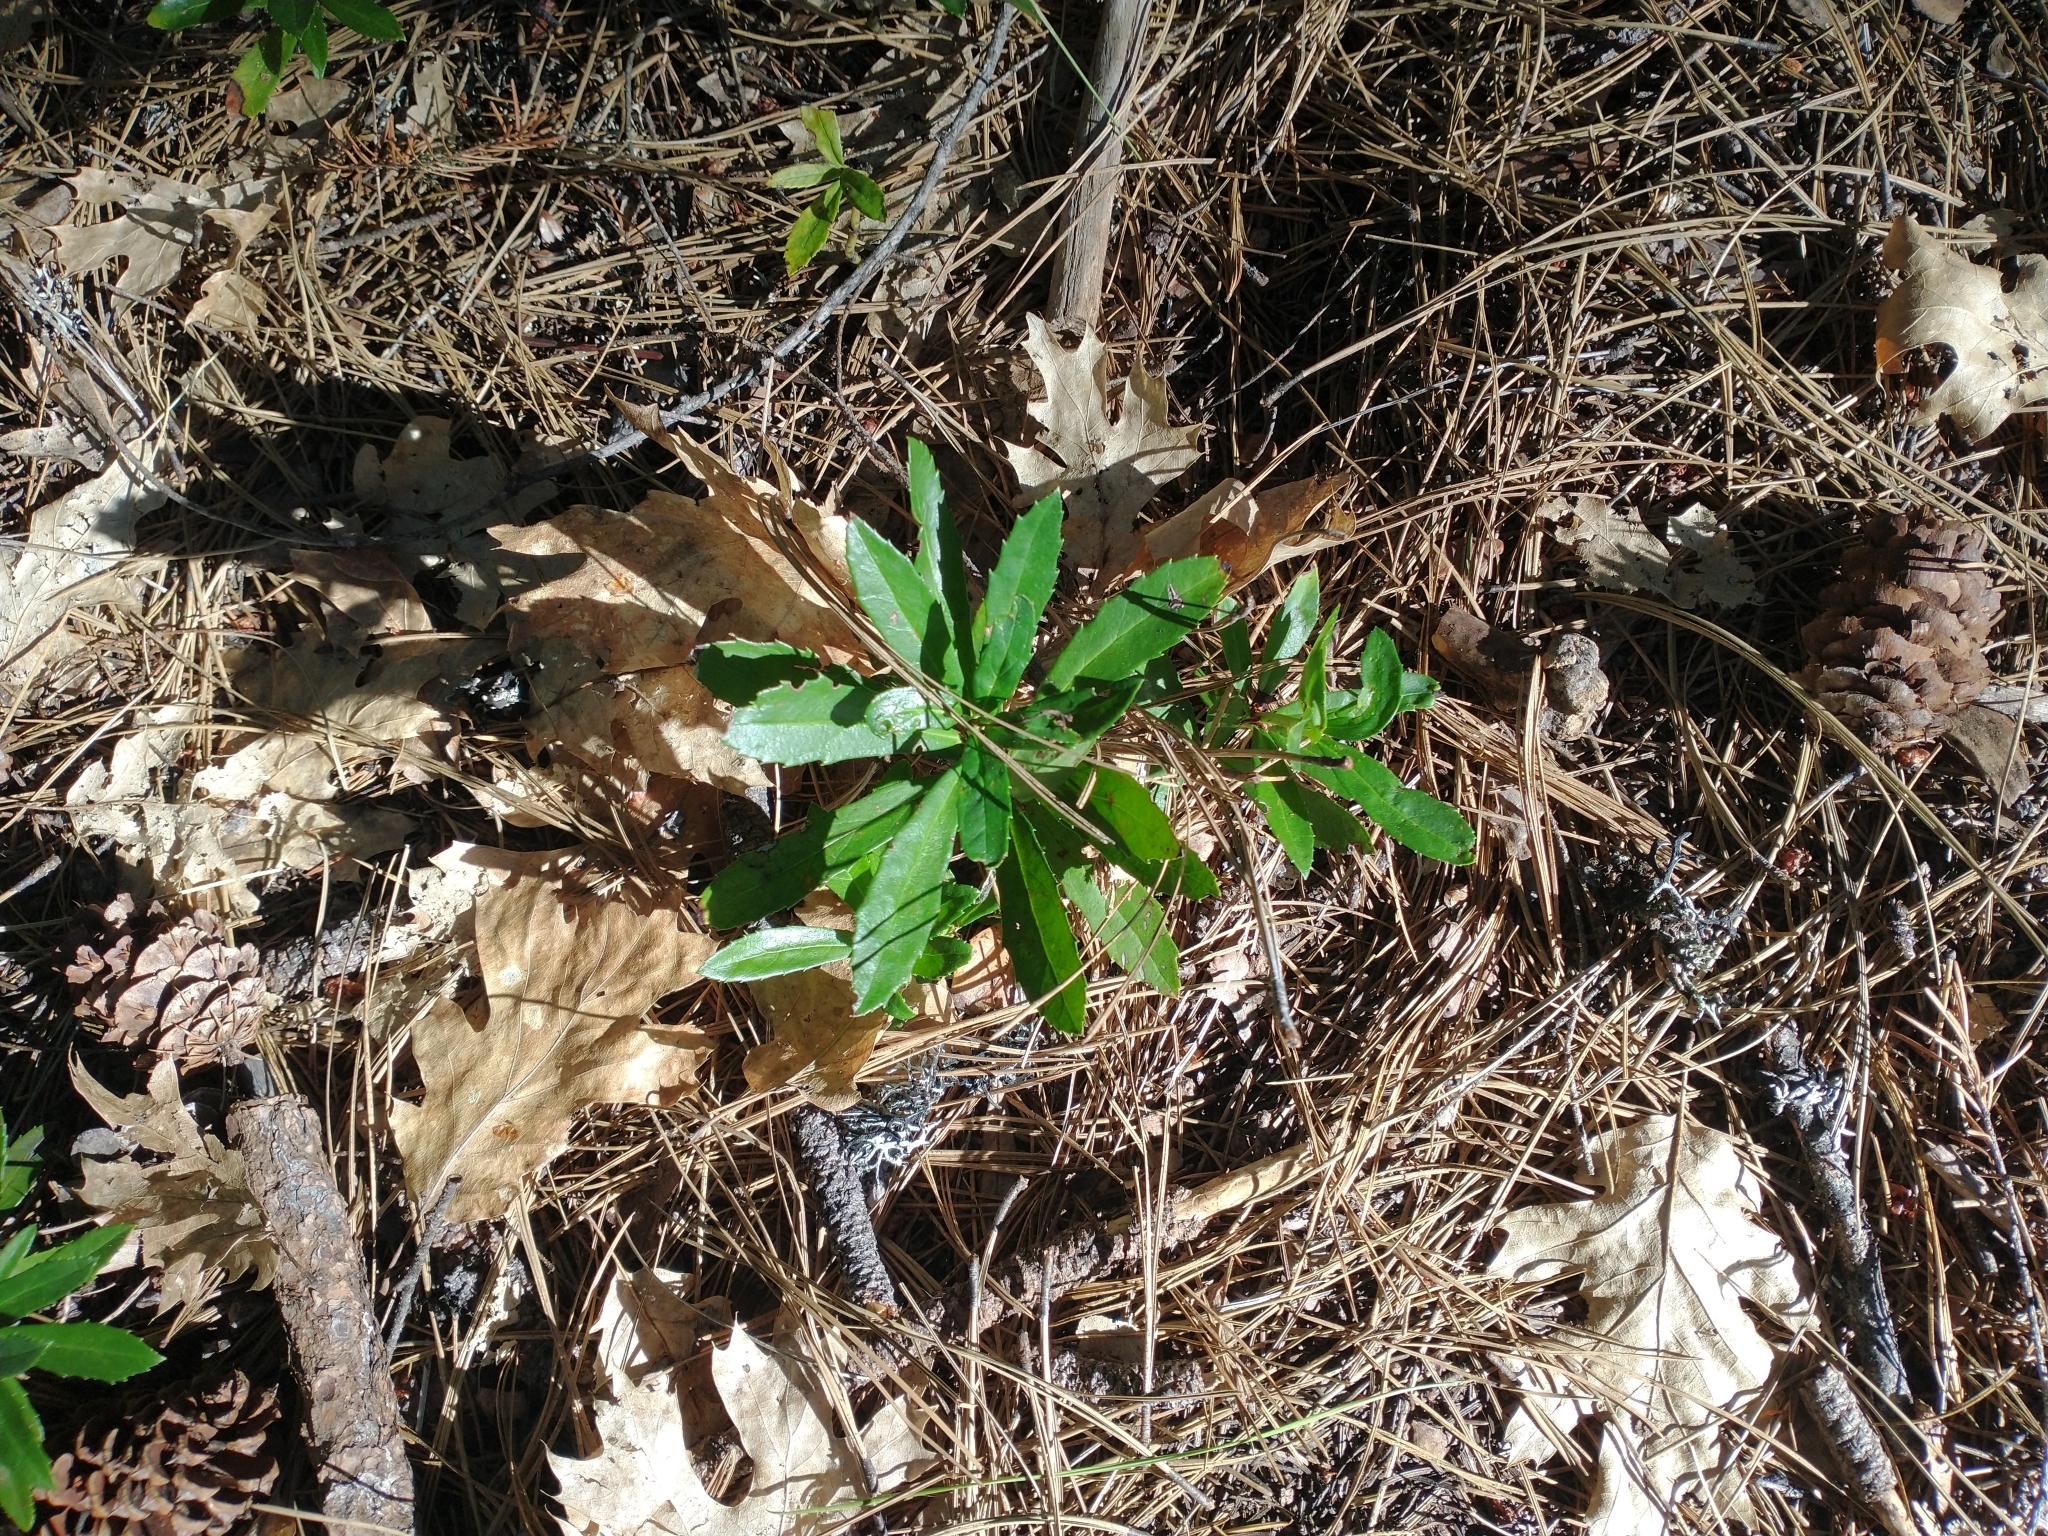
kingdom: Plantae
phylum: Tracheophyta
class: Magnoliopsida
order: Ericales
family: Ericaceae
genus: Chimaphila
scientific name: Chimaphila umbellata
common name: Pipsissewa
